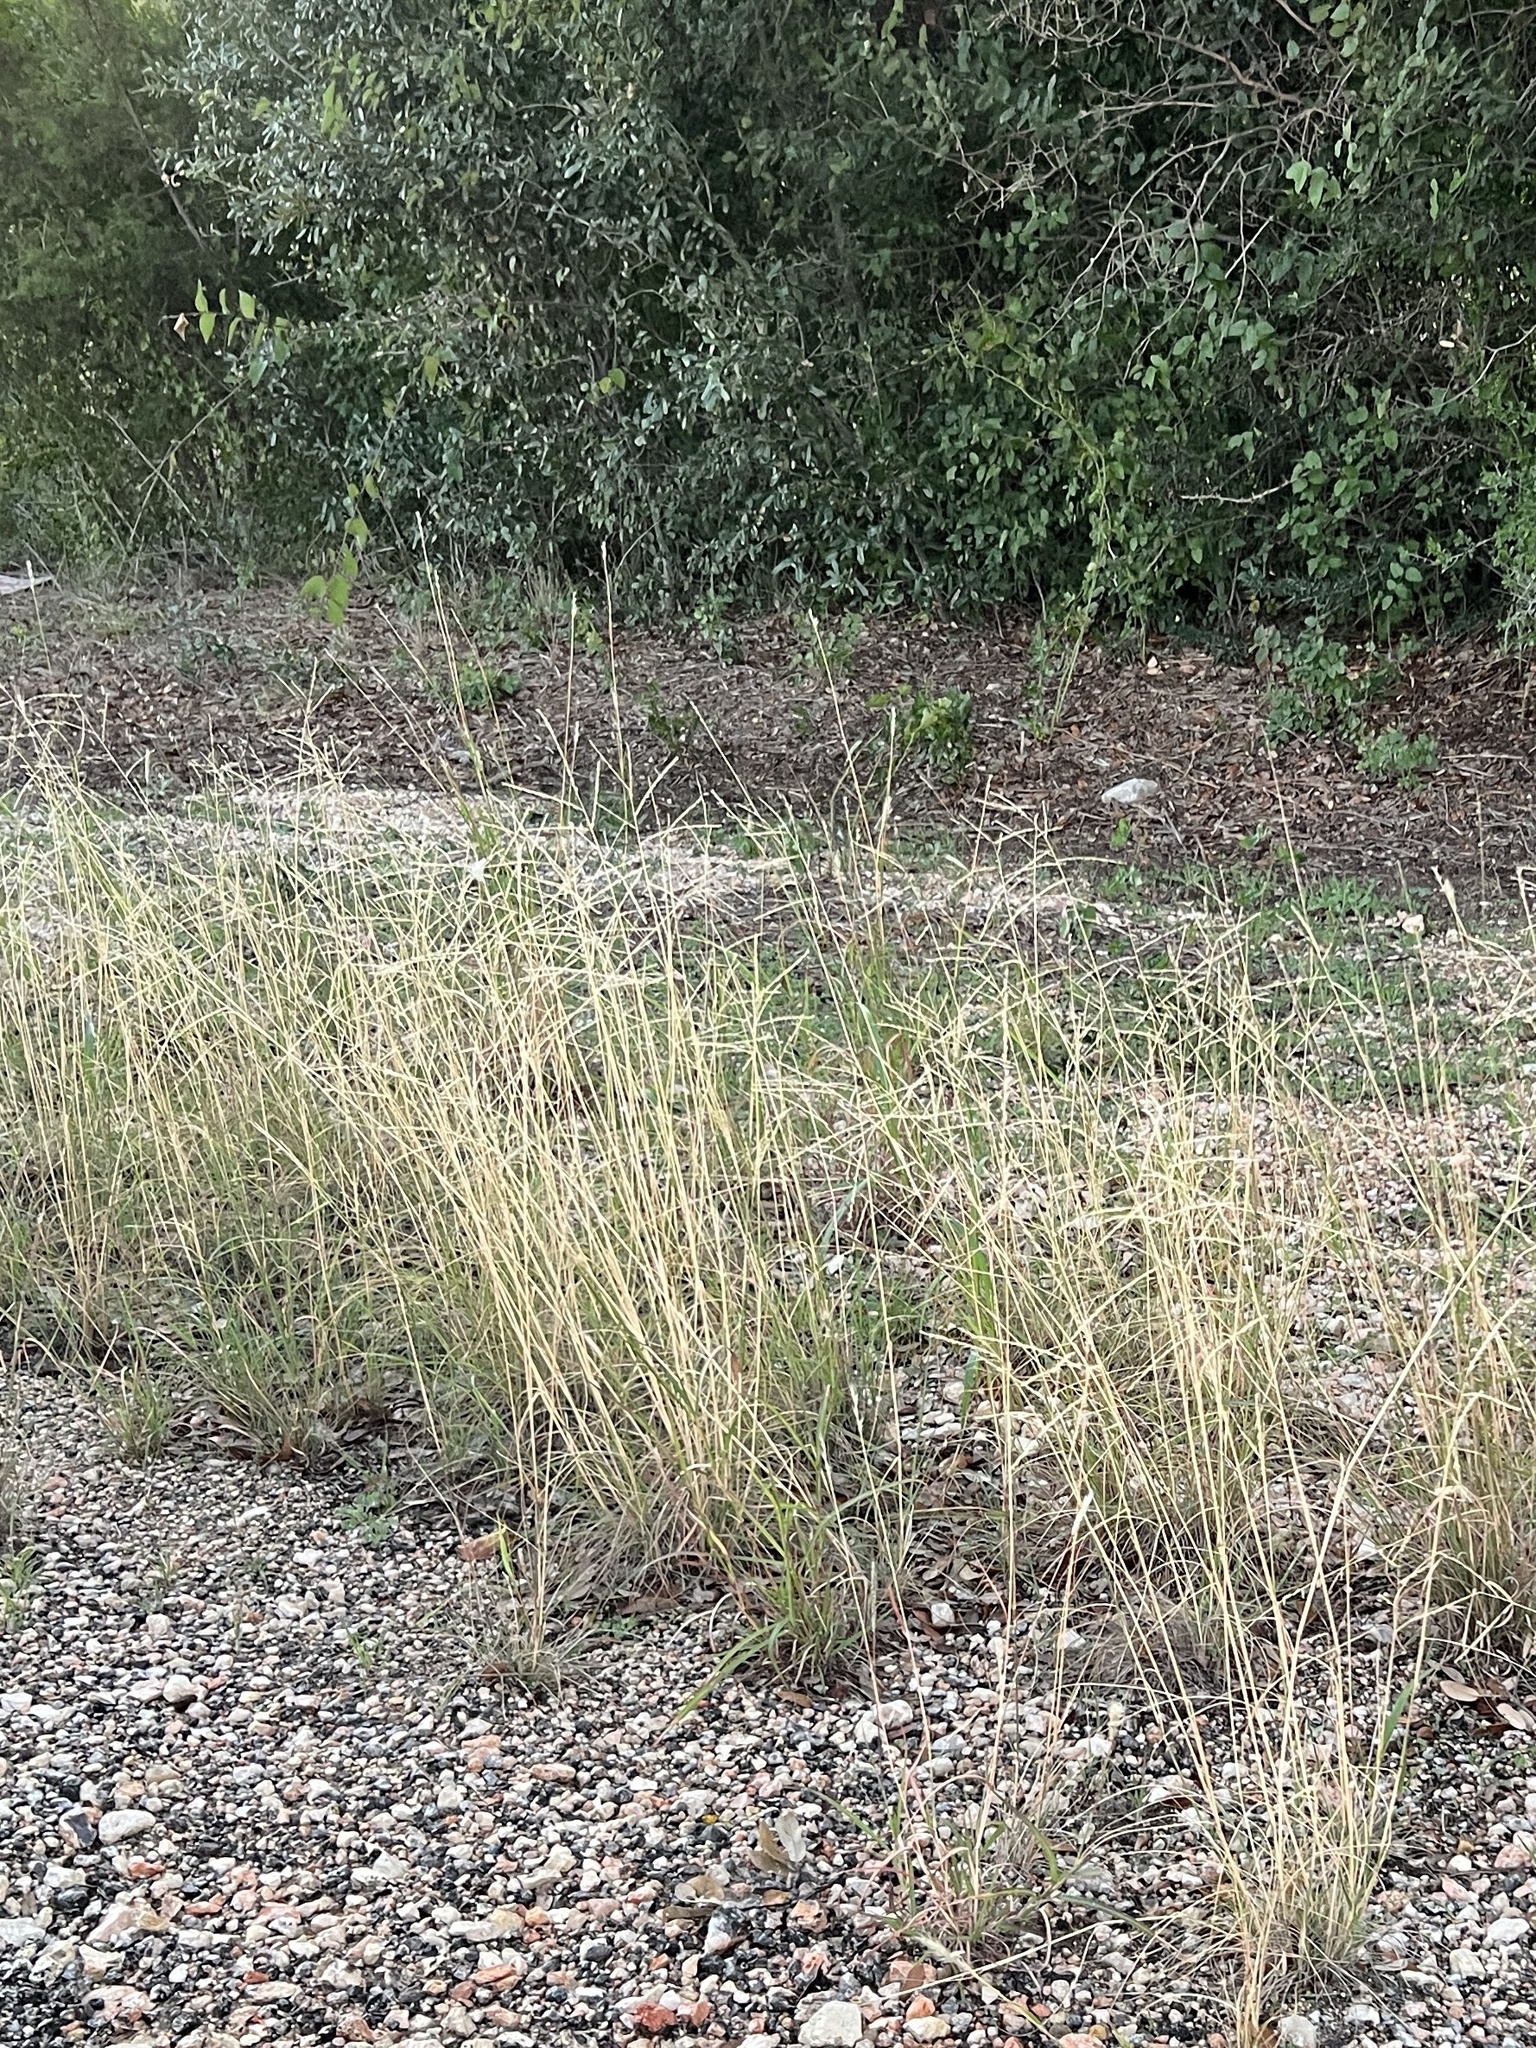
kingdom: Plantae
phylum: Tracheophyta
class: Liliopsida
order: Poales
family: Poaceae
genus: Disakisperma
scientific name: Disakisperma dubium
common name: Green sprangletop
